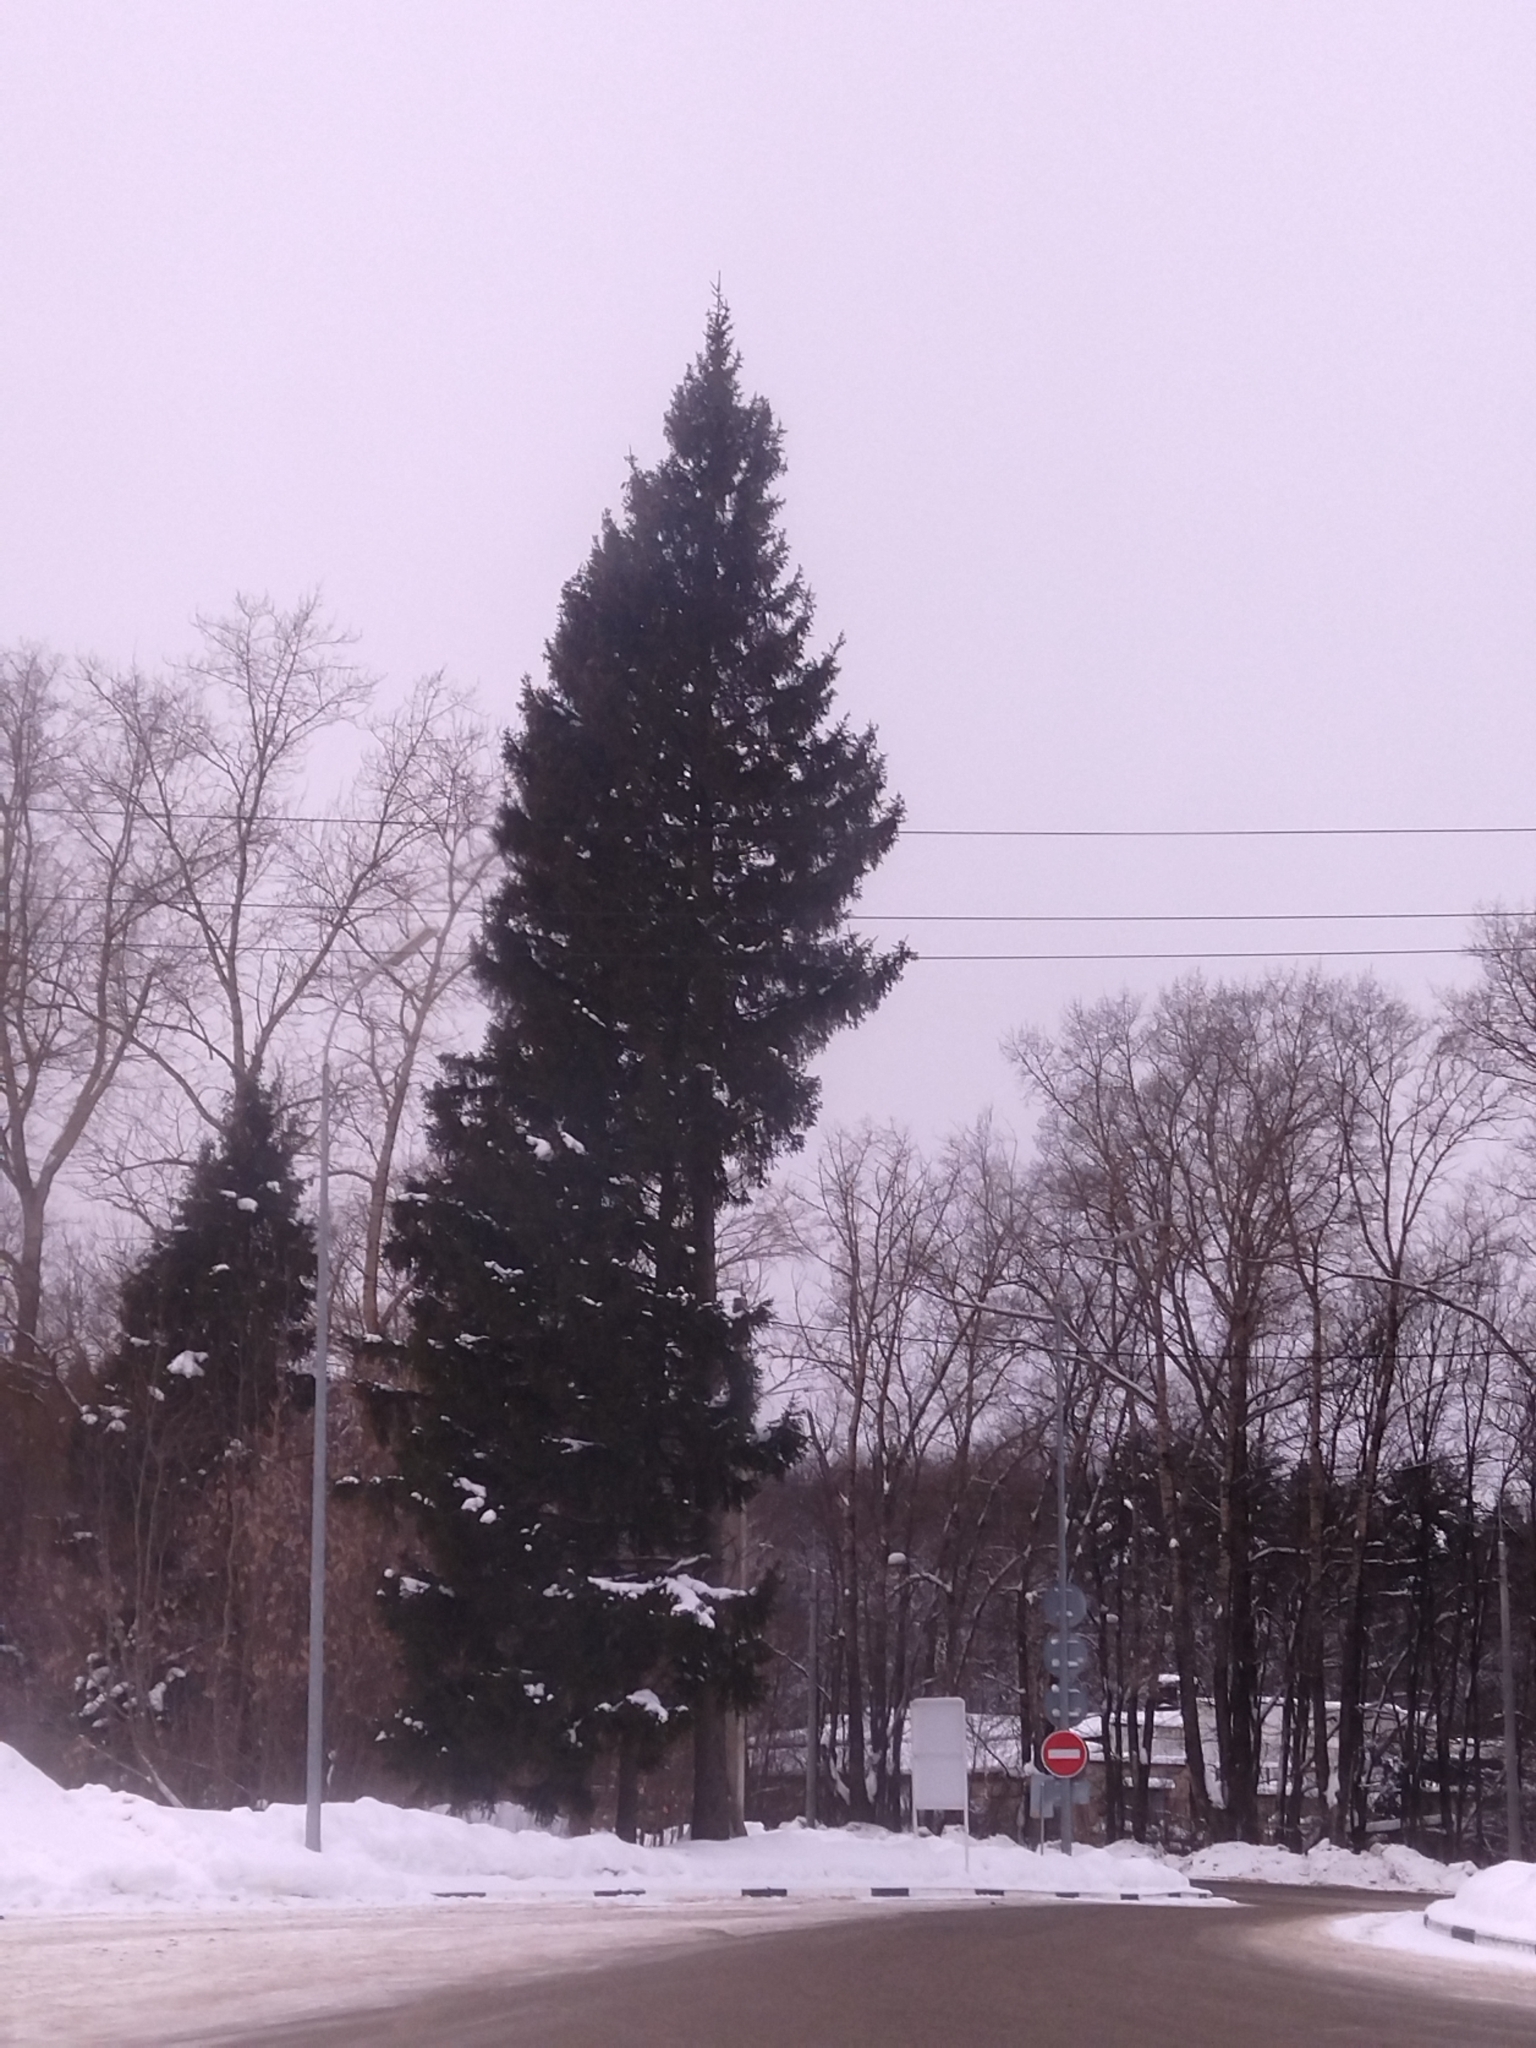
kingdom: Plantae
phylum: Tracheophyta
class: Pinopsida
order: Pinales
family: Pinaceae
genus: Picea
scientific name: Picea abies
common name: Norway spruce
